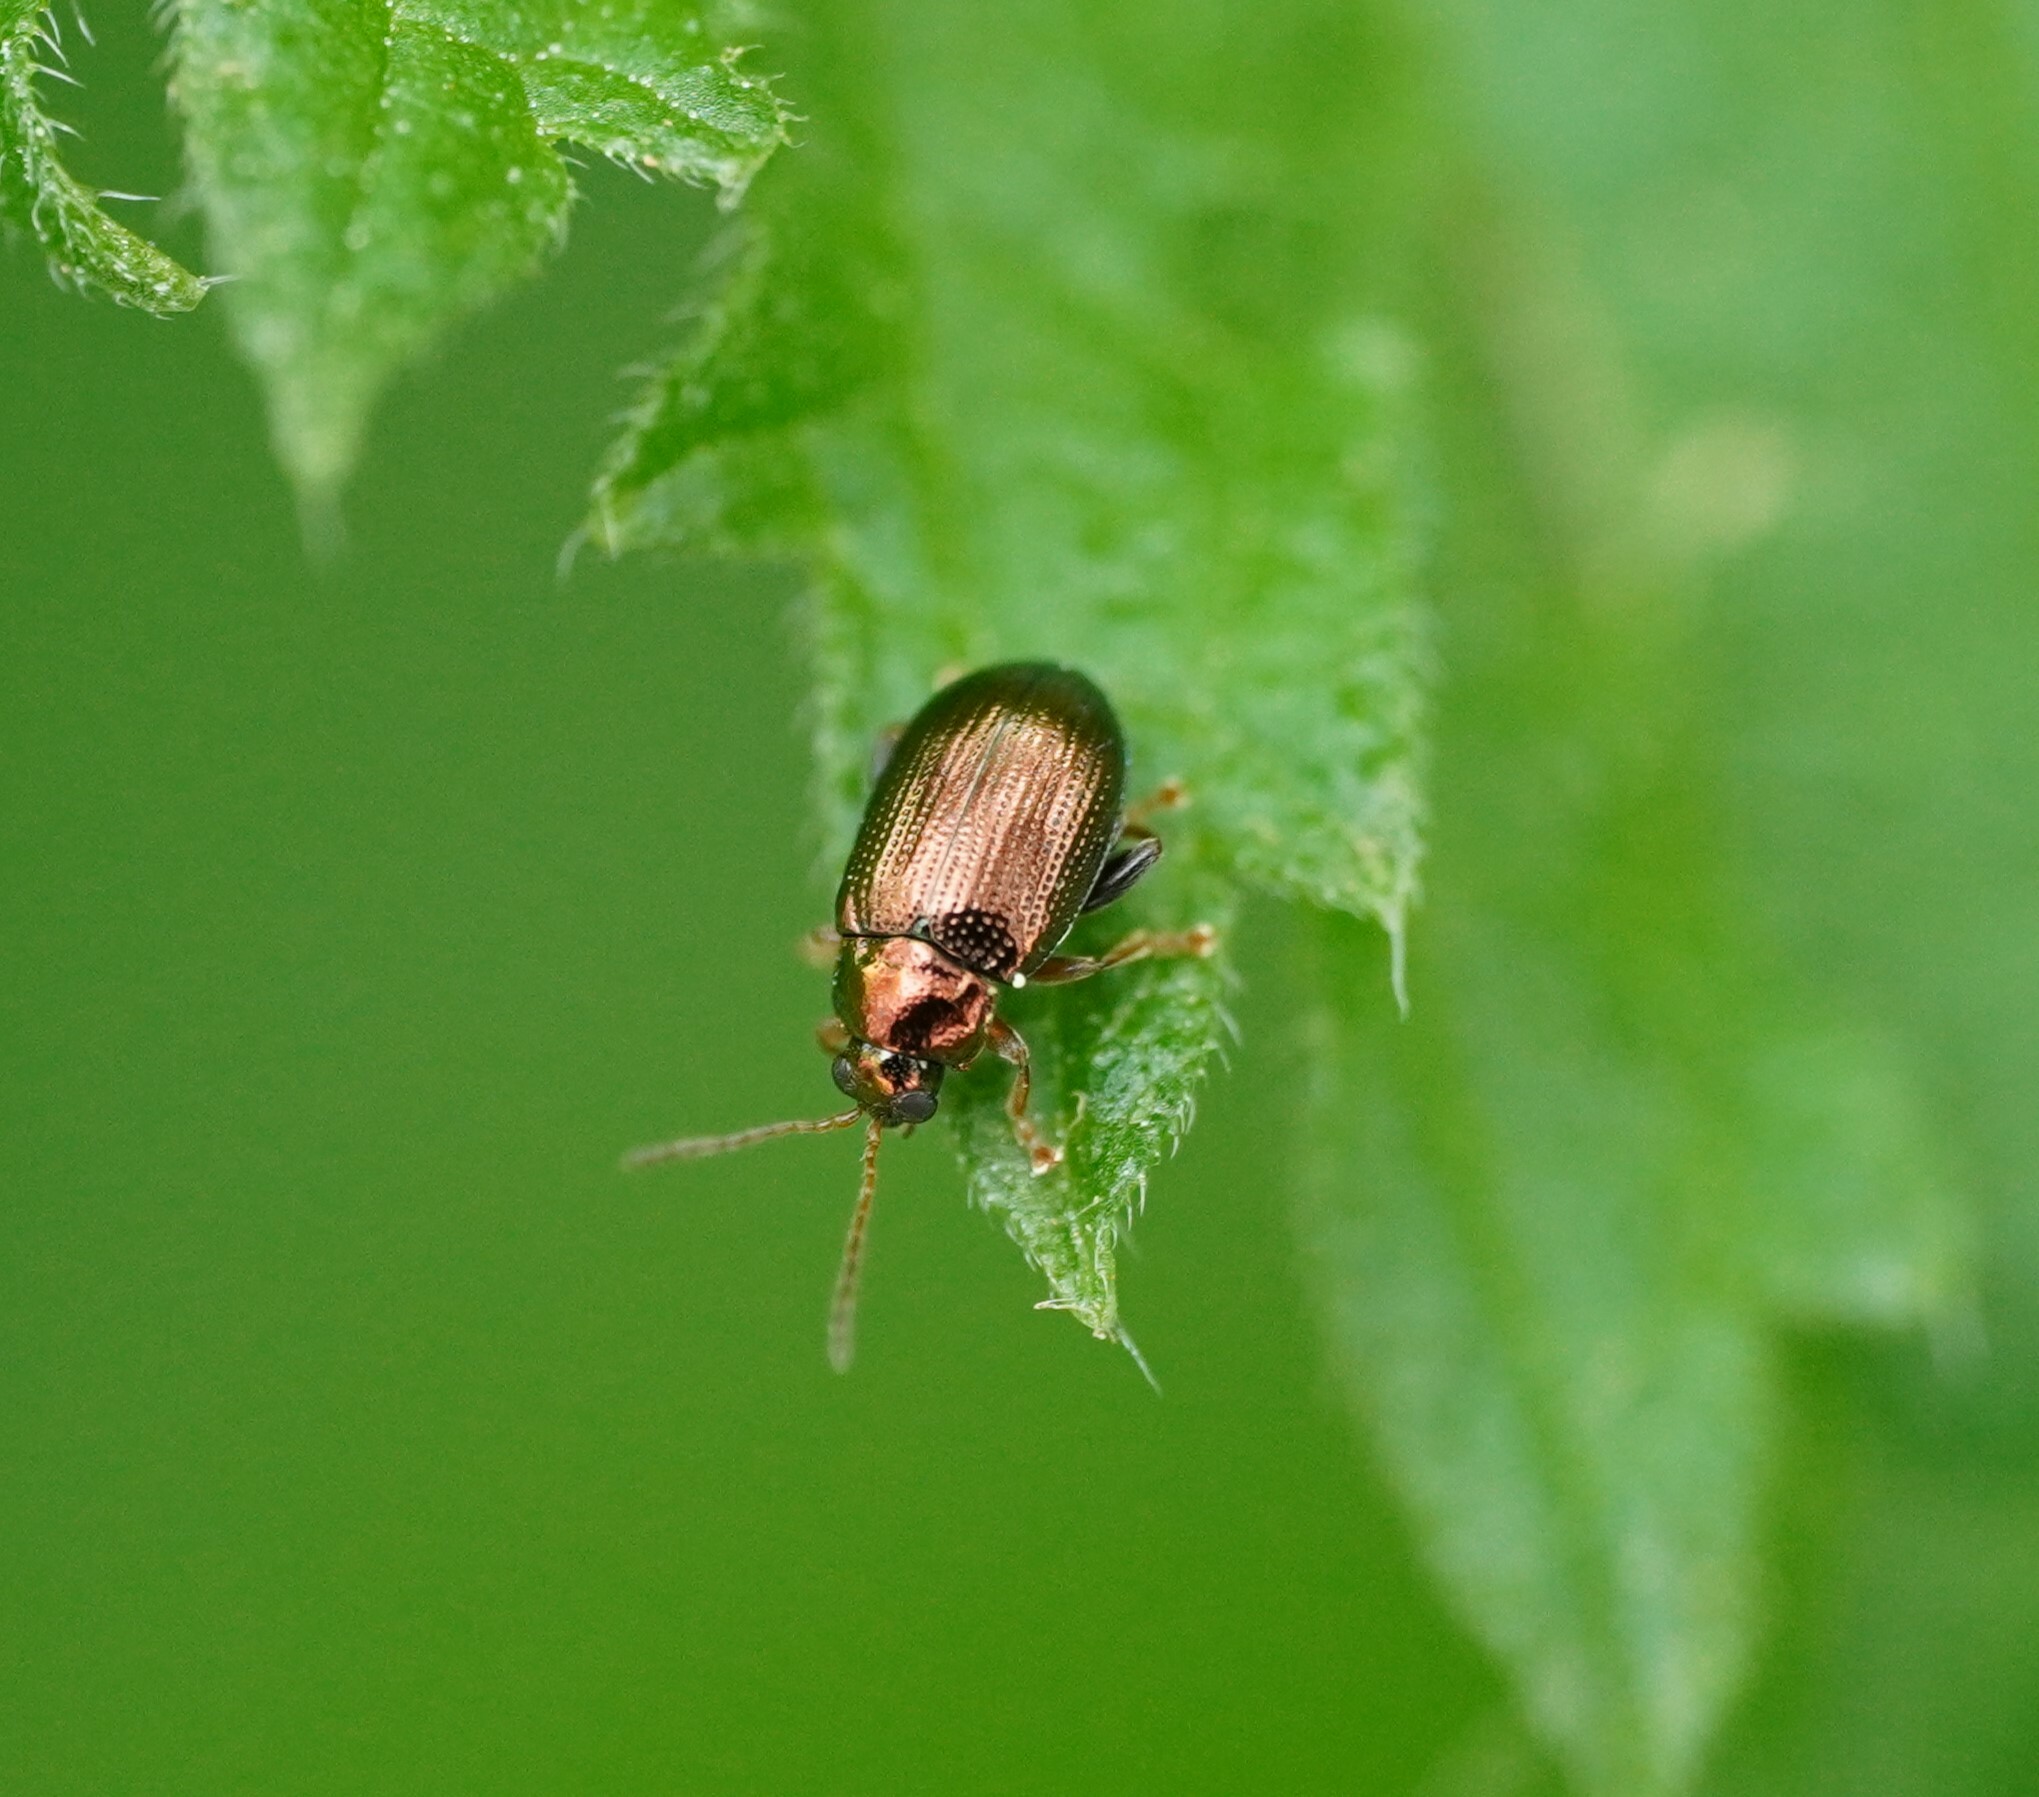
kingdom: Animalia
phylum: Arthropoda
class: Insecta
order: Coleoptera
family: Chrysomelidae
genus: Crepidodera
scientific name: Crepidodera aurea
